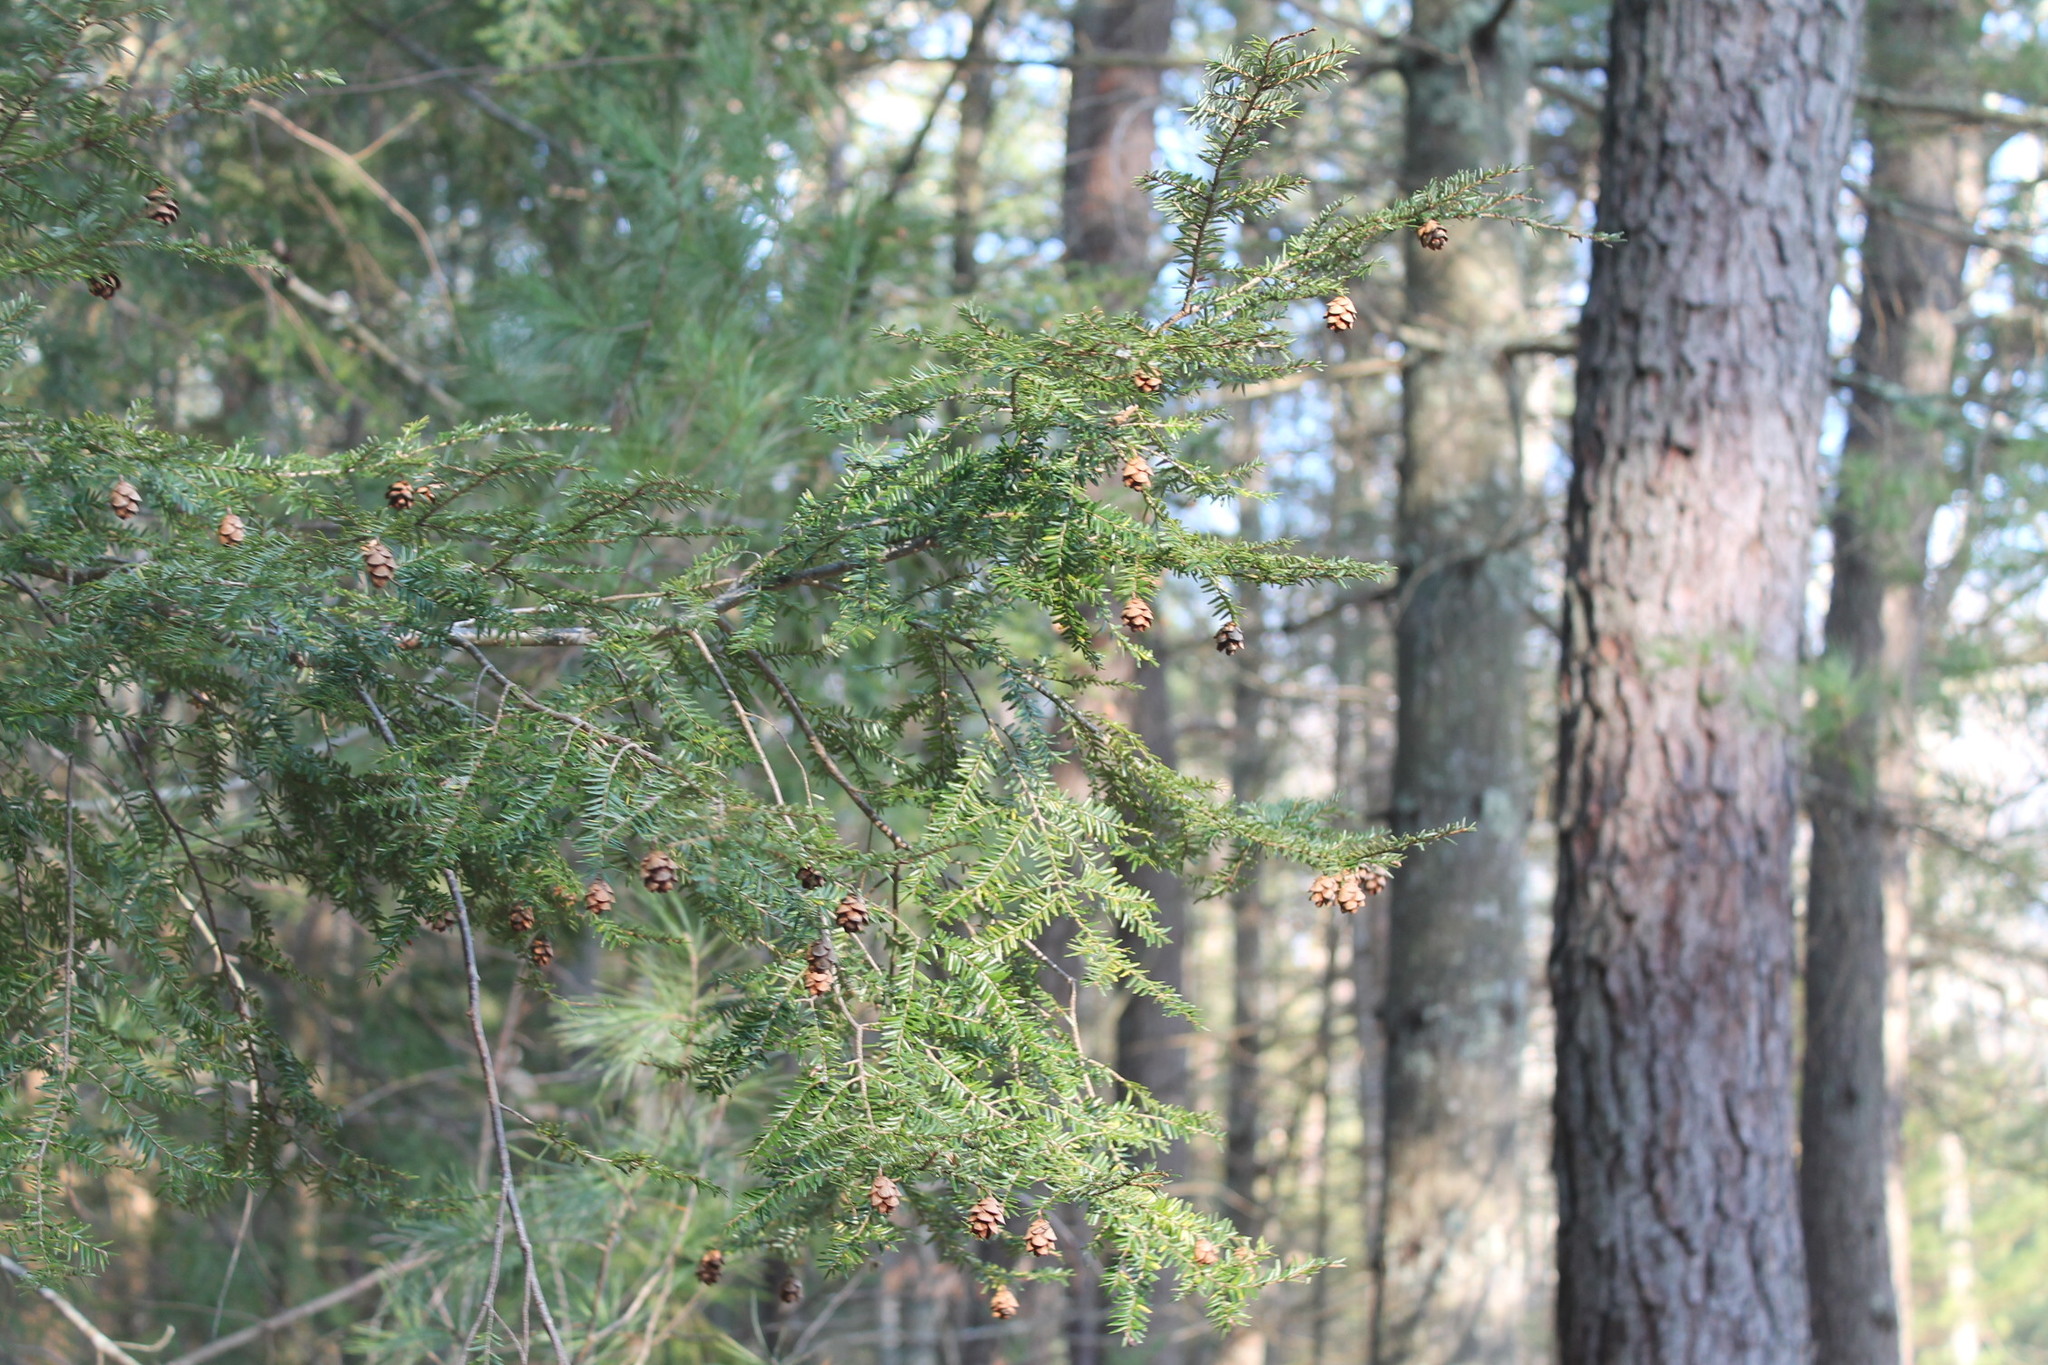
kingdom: Plantae
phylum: Tracheophyta
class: Pinopsida
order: Pinales
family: Pinaceae
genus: Tsuga
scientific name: Tsuga canadensis
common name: Eastern hemlock
